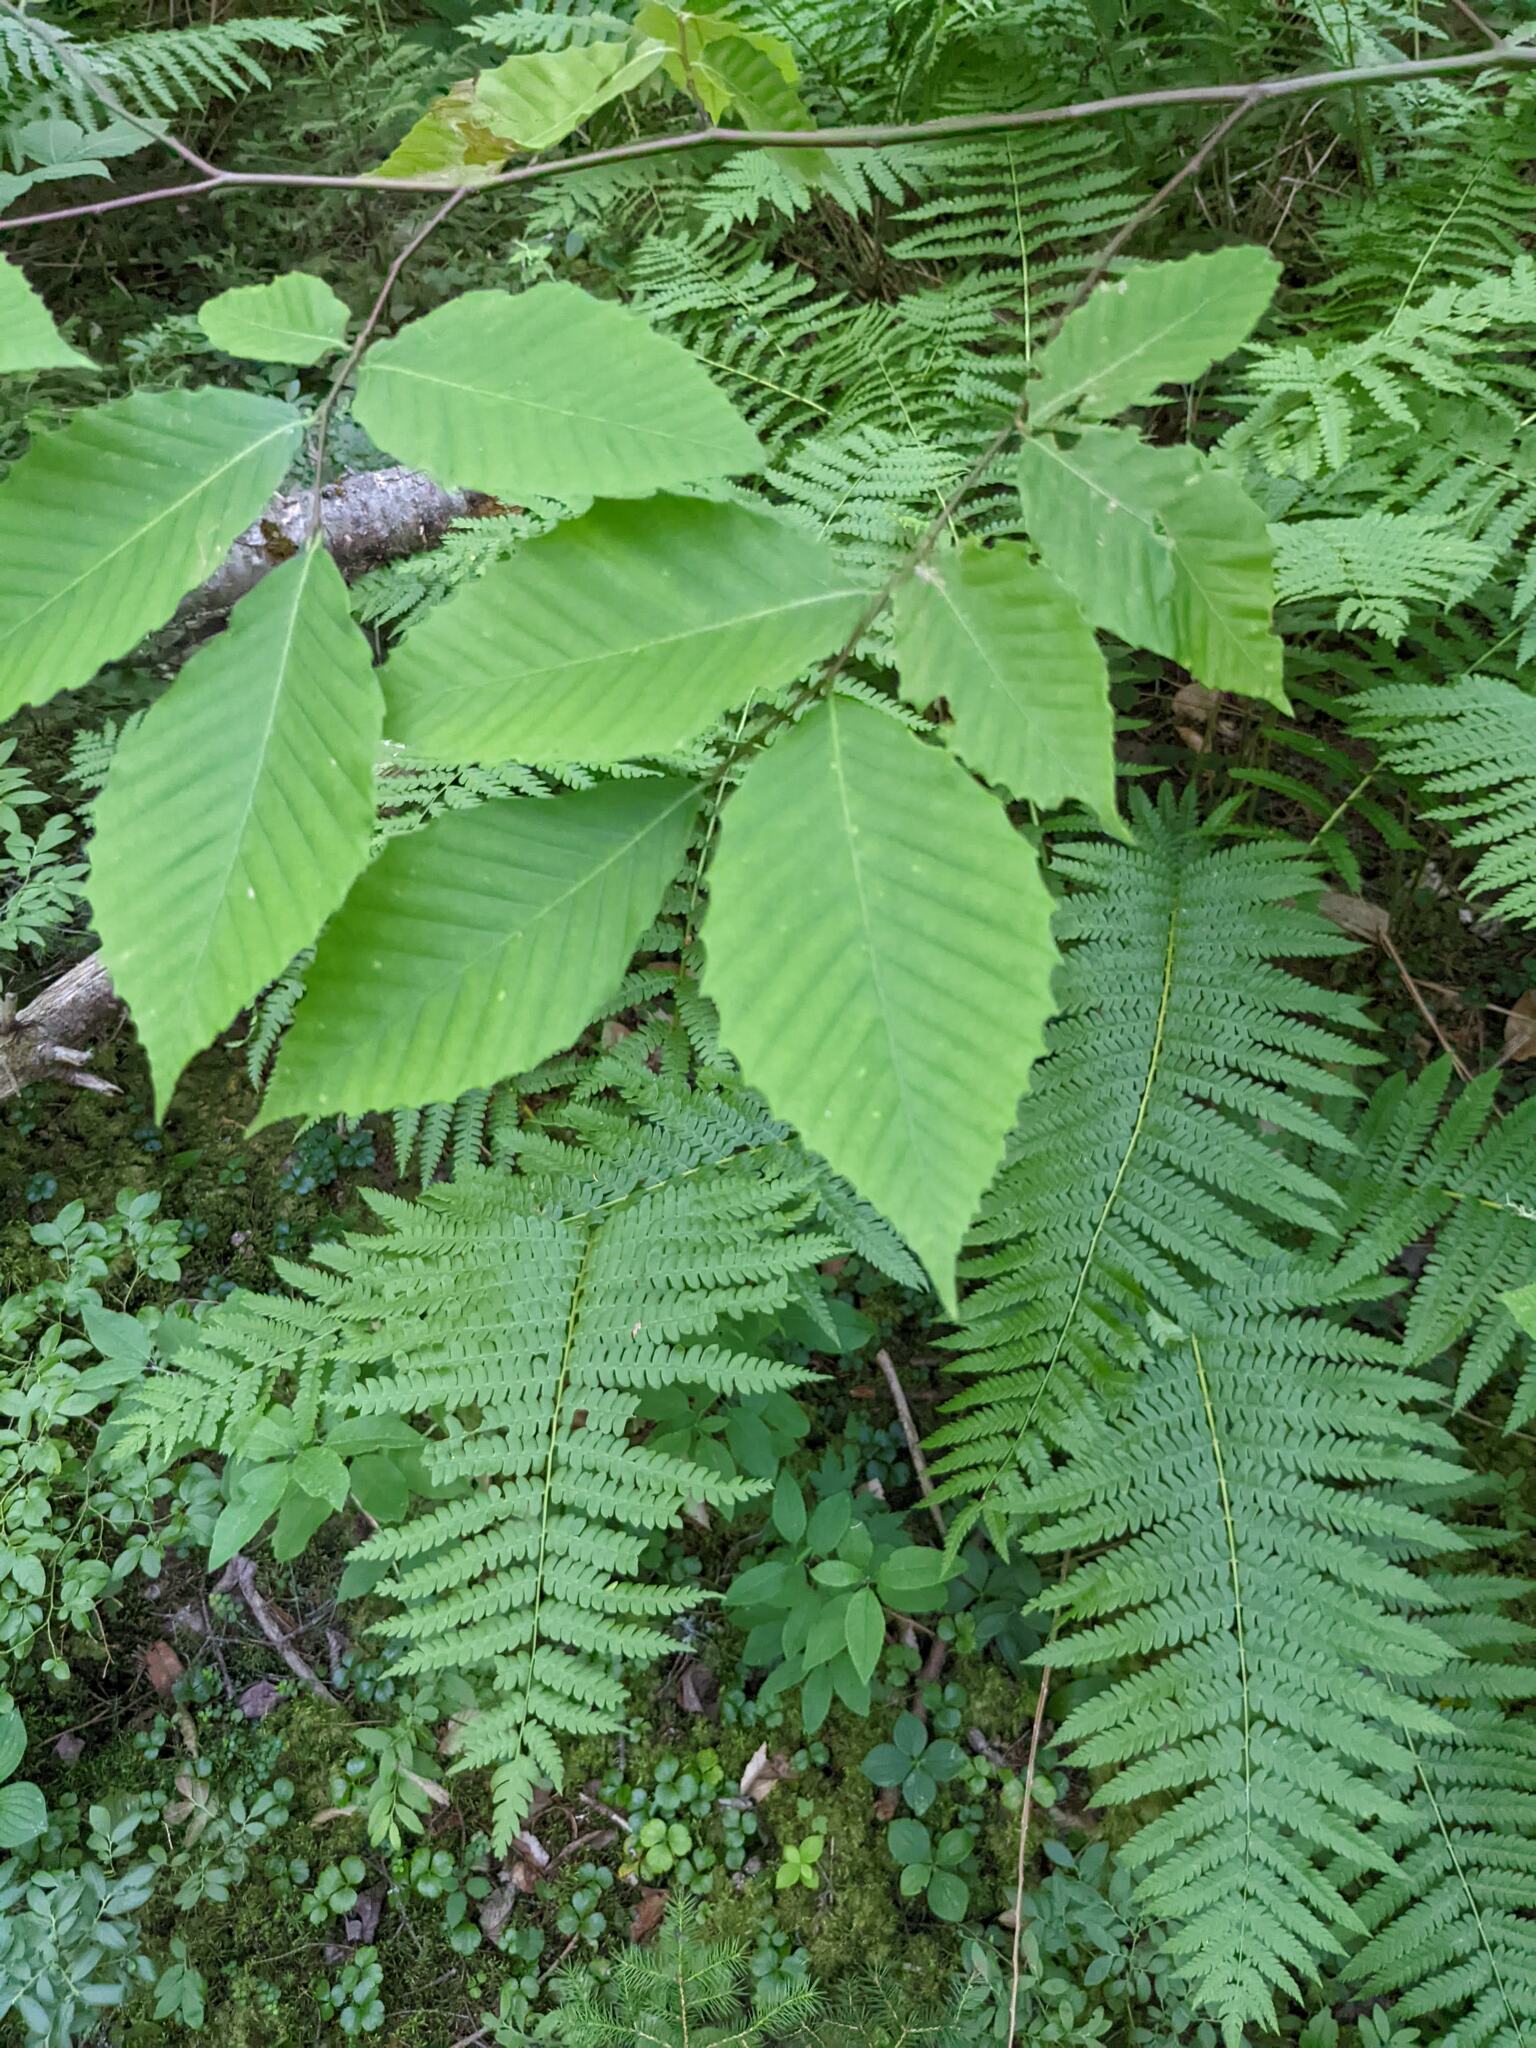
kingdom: Plantae
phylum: Tracheophyta
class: Magnoliopsida
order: Fagales
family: Fagaceae
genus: Fagus
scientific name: Fagus grandifolia
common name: American beech
